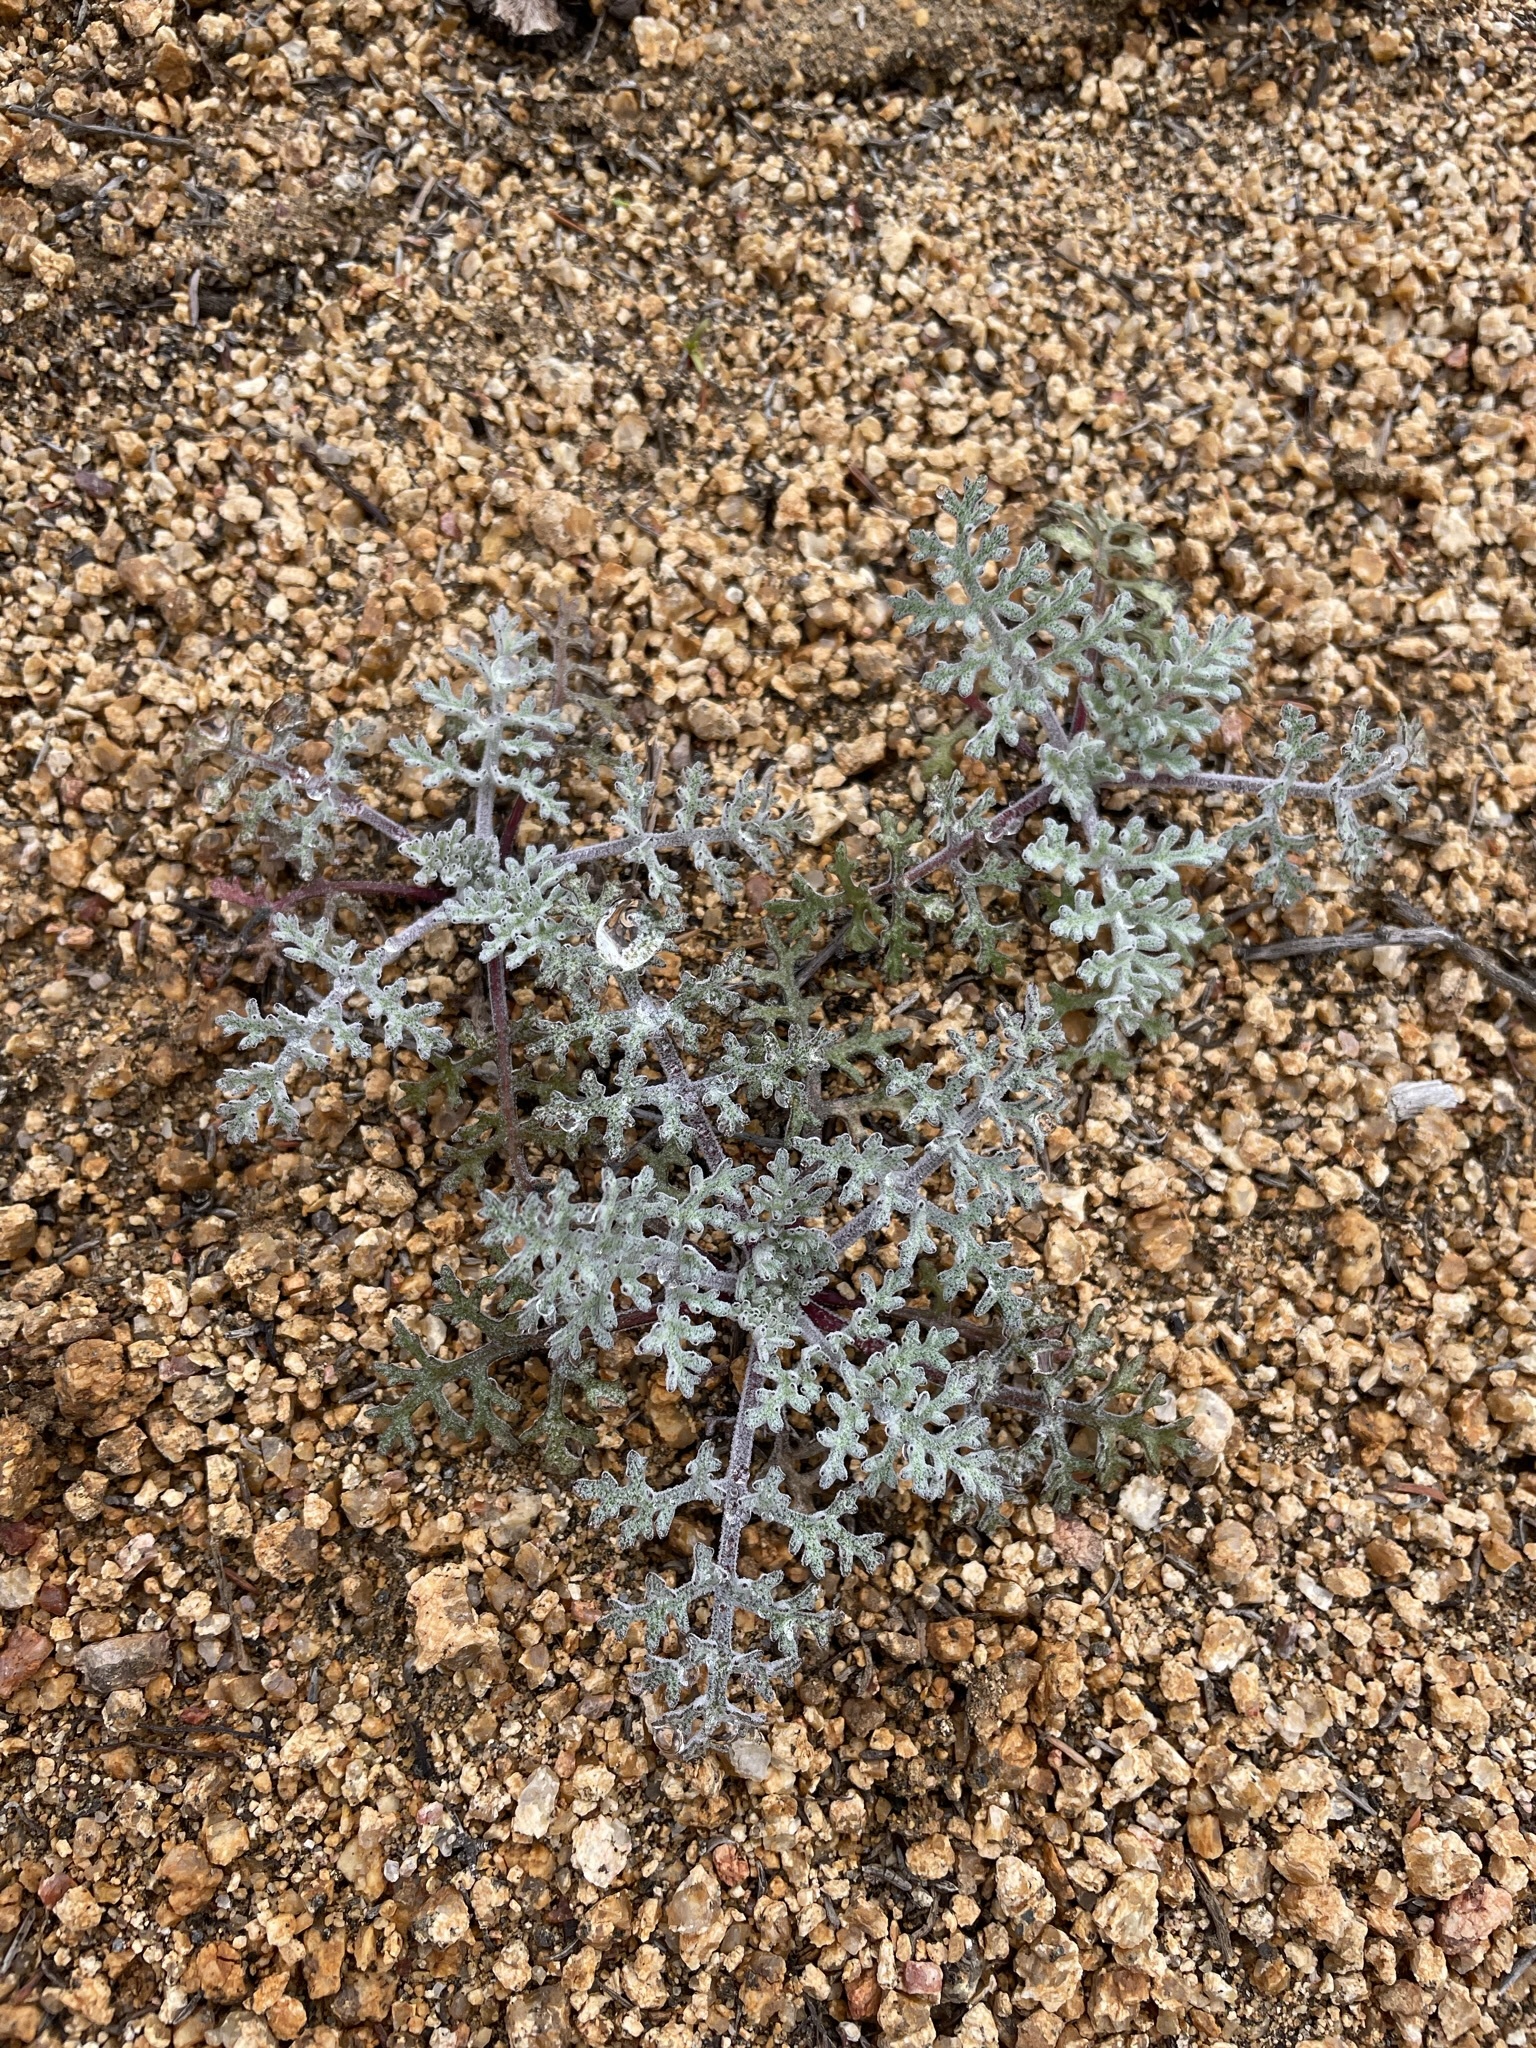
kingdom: Plantae
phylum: Tracheophyta
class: Magnoliopsida
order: Asterales
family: Asteraceae
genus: Chaenactis
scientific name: Chaenactis artemisiifolia
